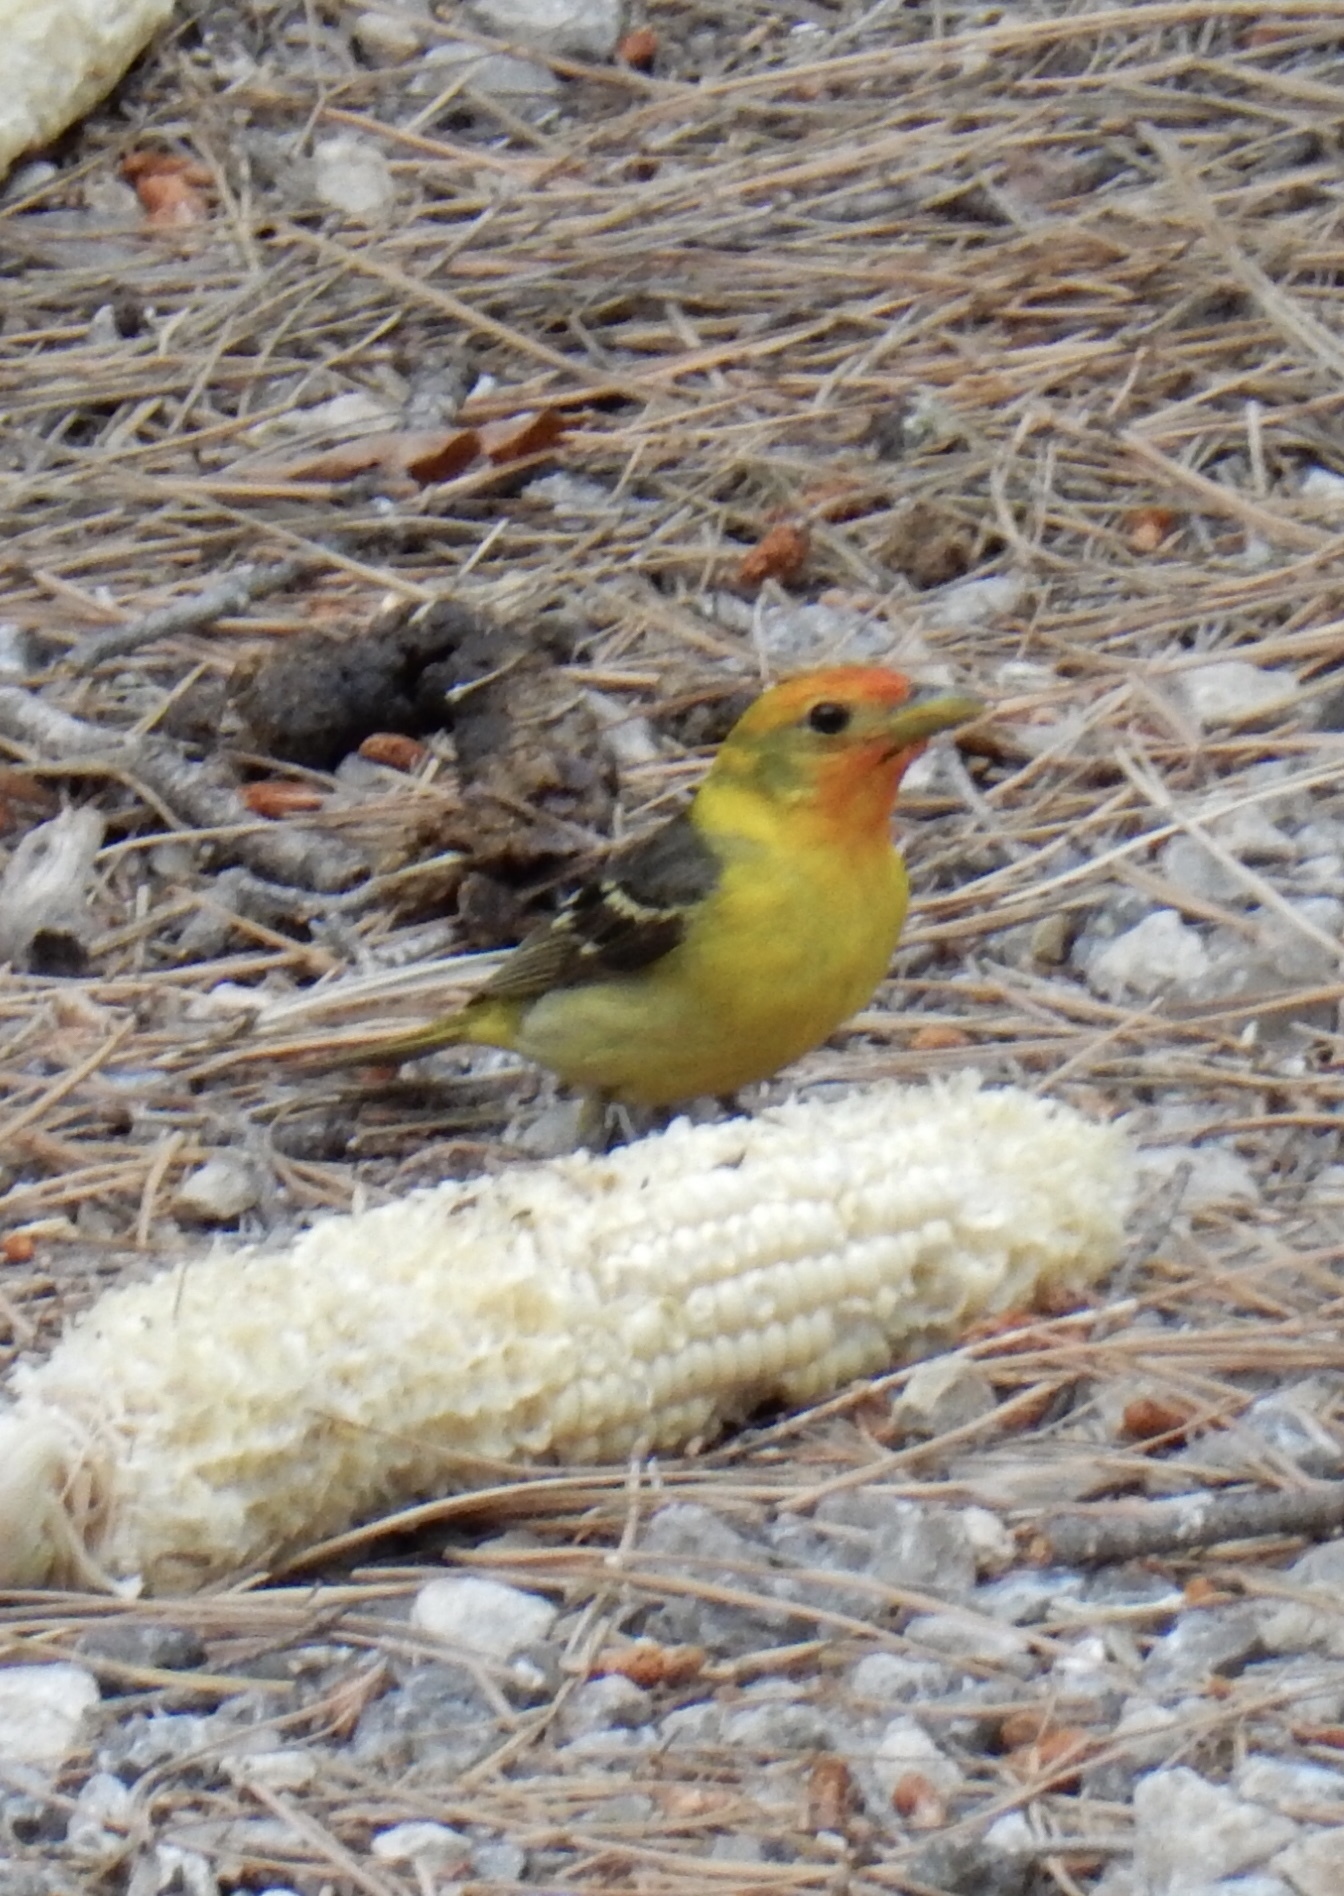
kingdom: Animalia
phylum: Chordata
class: Aves
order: Passeriformes
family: Cardinalidae
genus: Piranga
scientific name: Piranga ludoviciana
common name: Western tanager
